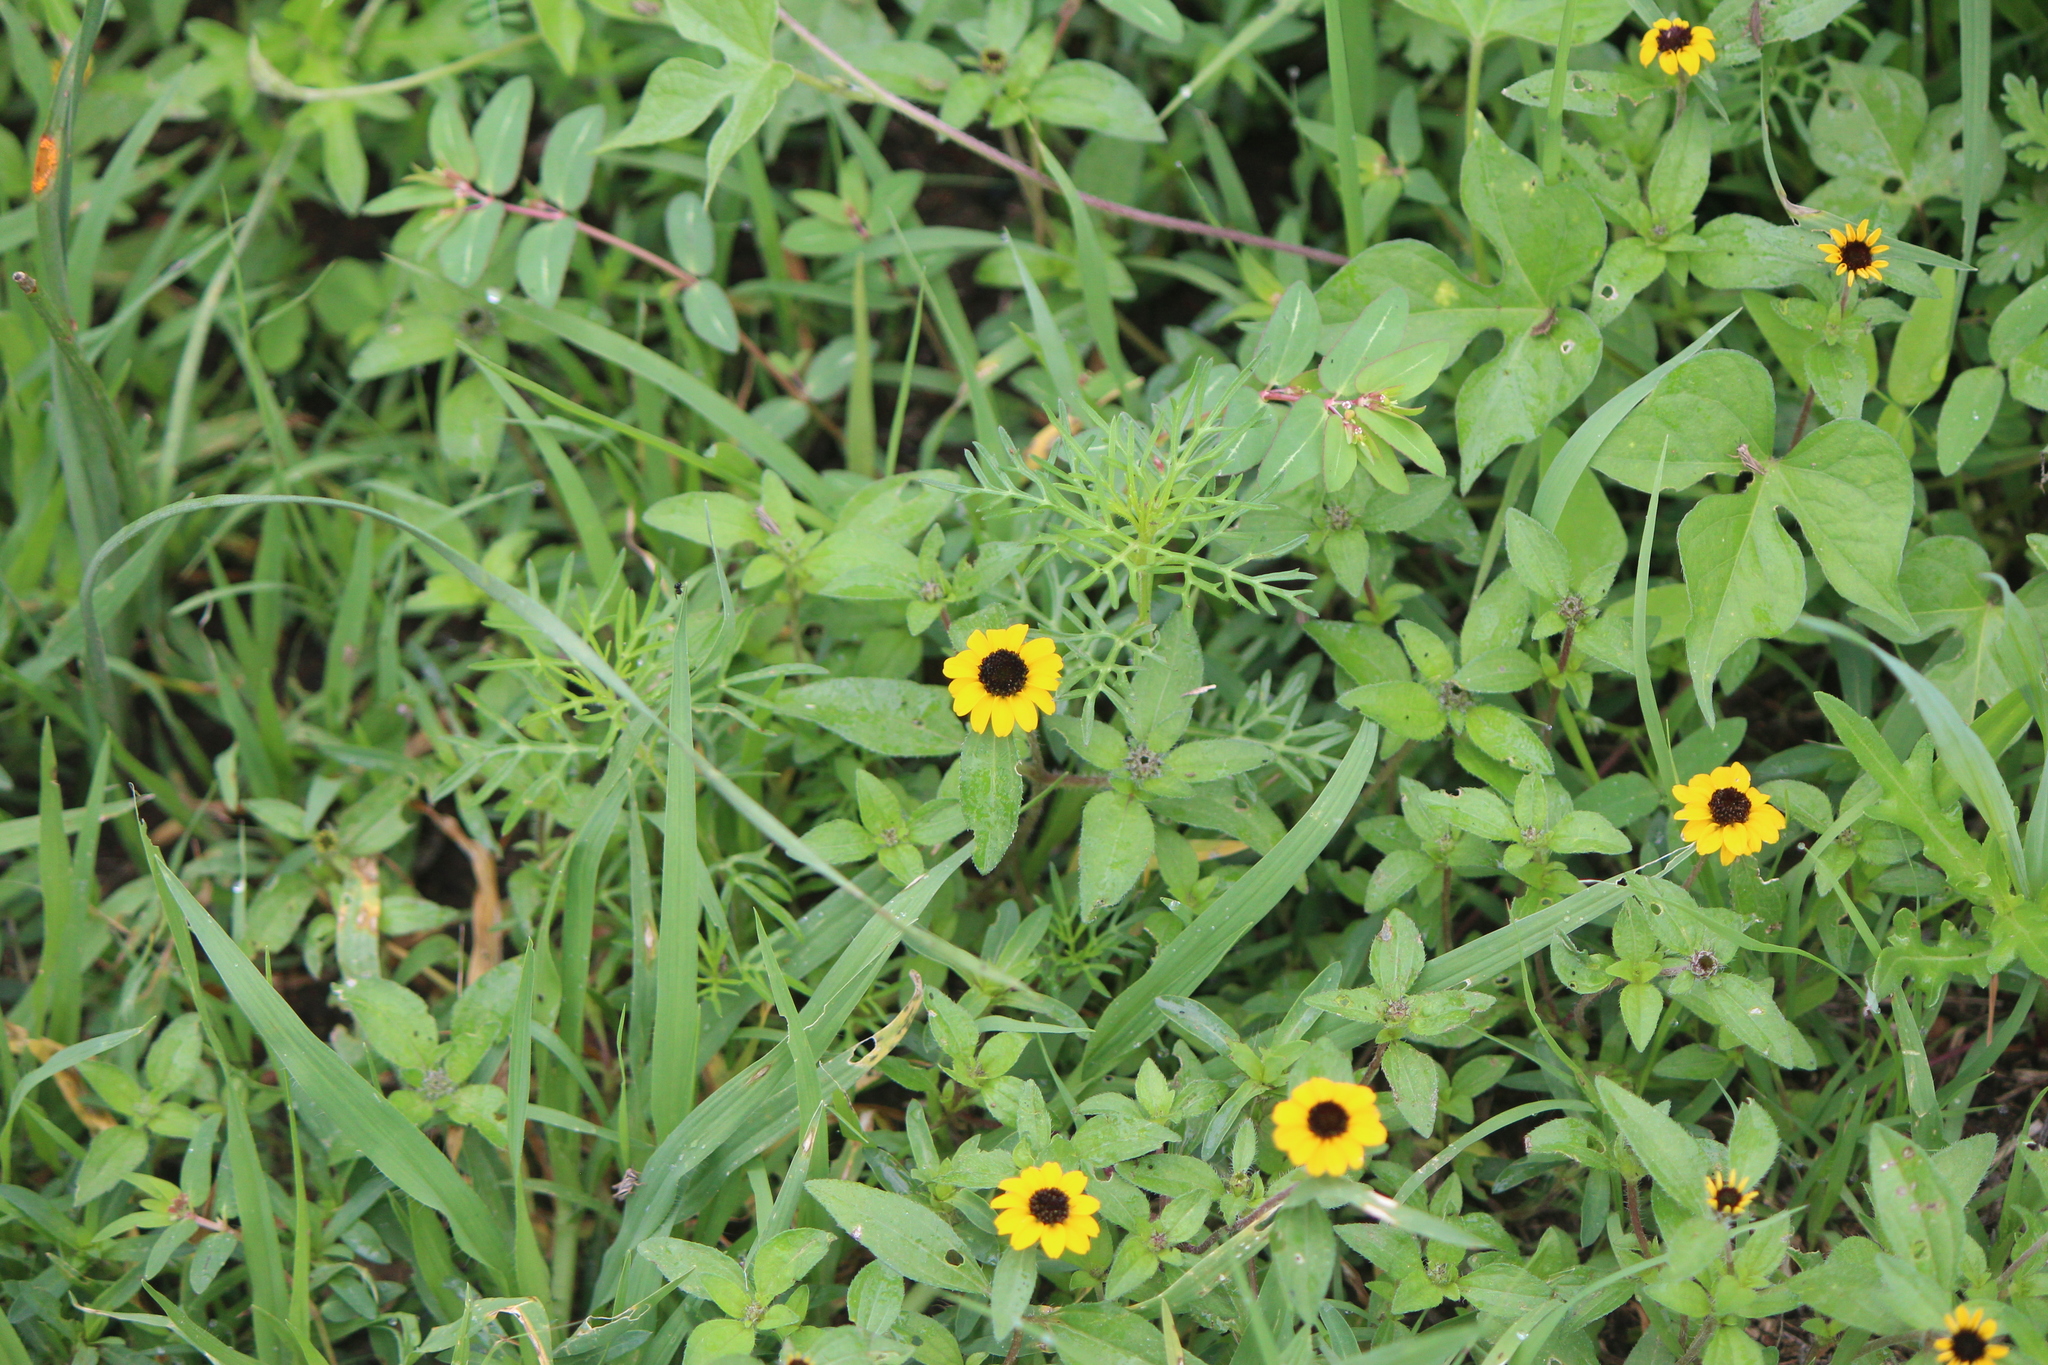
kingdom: Plantae
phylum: Tracheophyta
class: Magnoliopsida
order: Asterales
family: Asteraceae
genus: Sanvitalia
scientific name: Sanvitalia procumbens
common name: Mexican creeping zinnia
